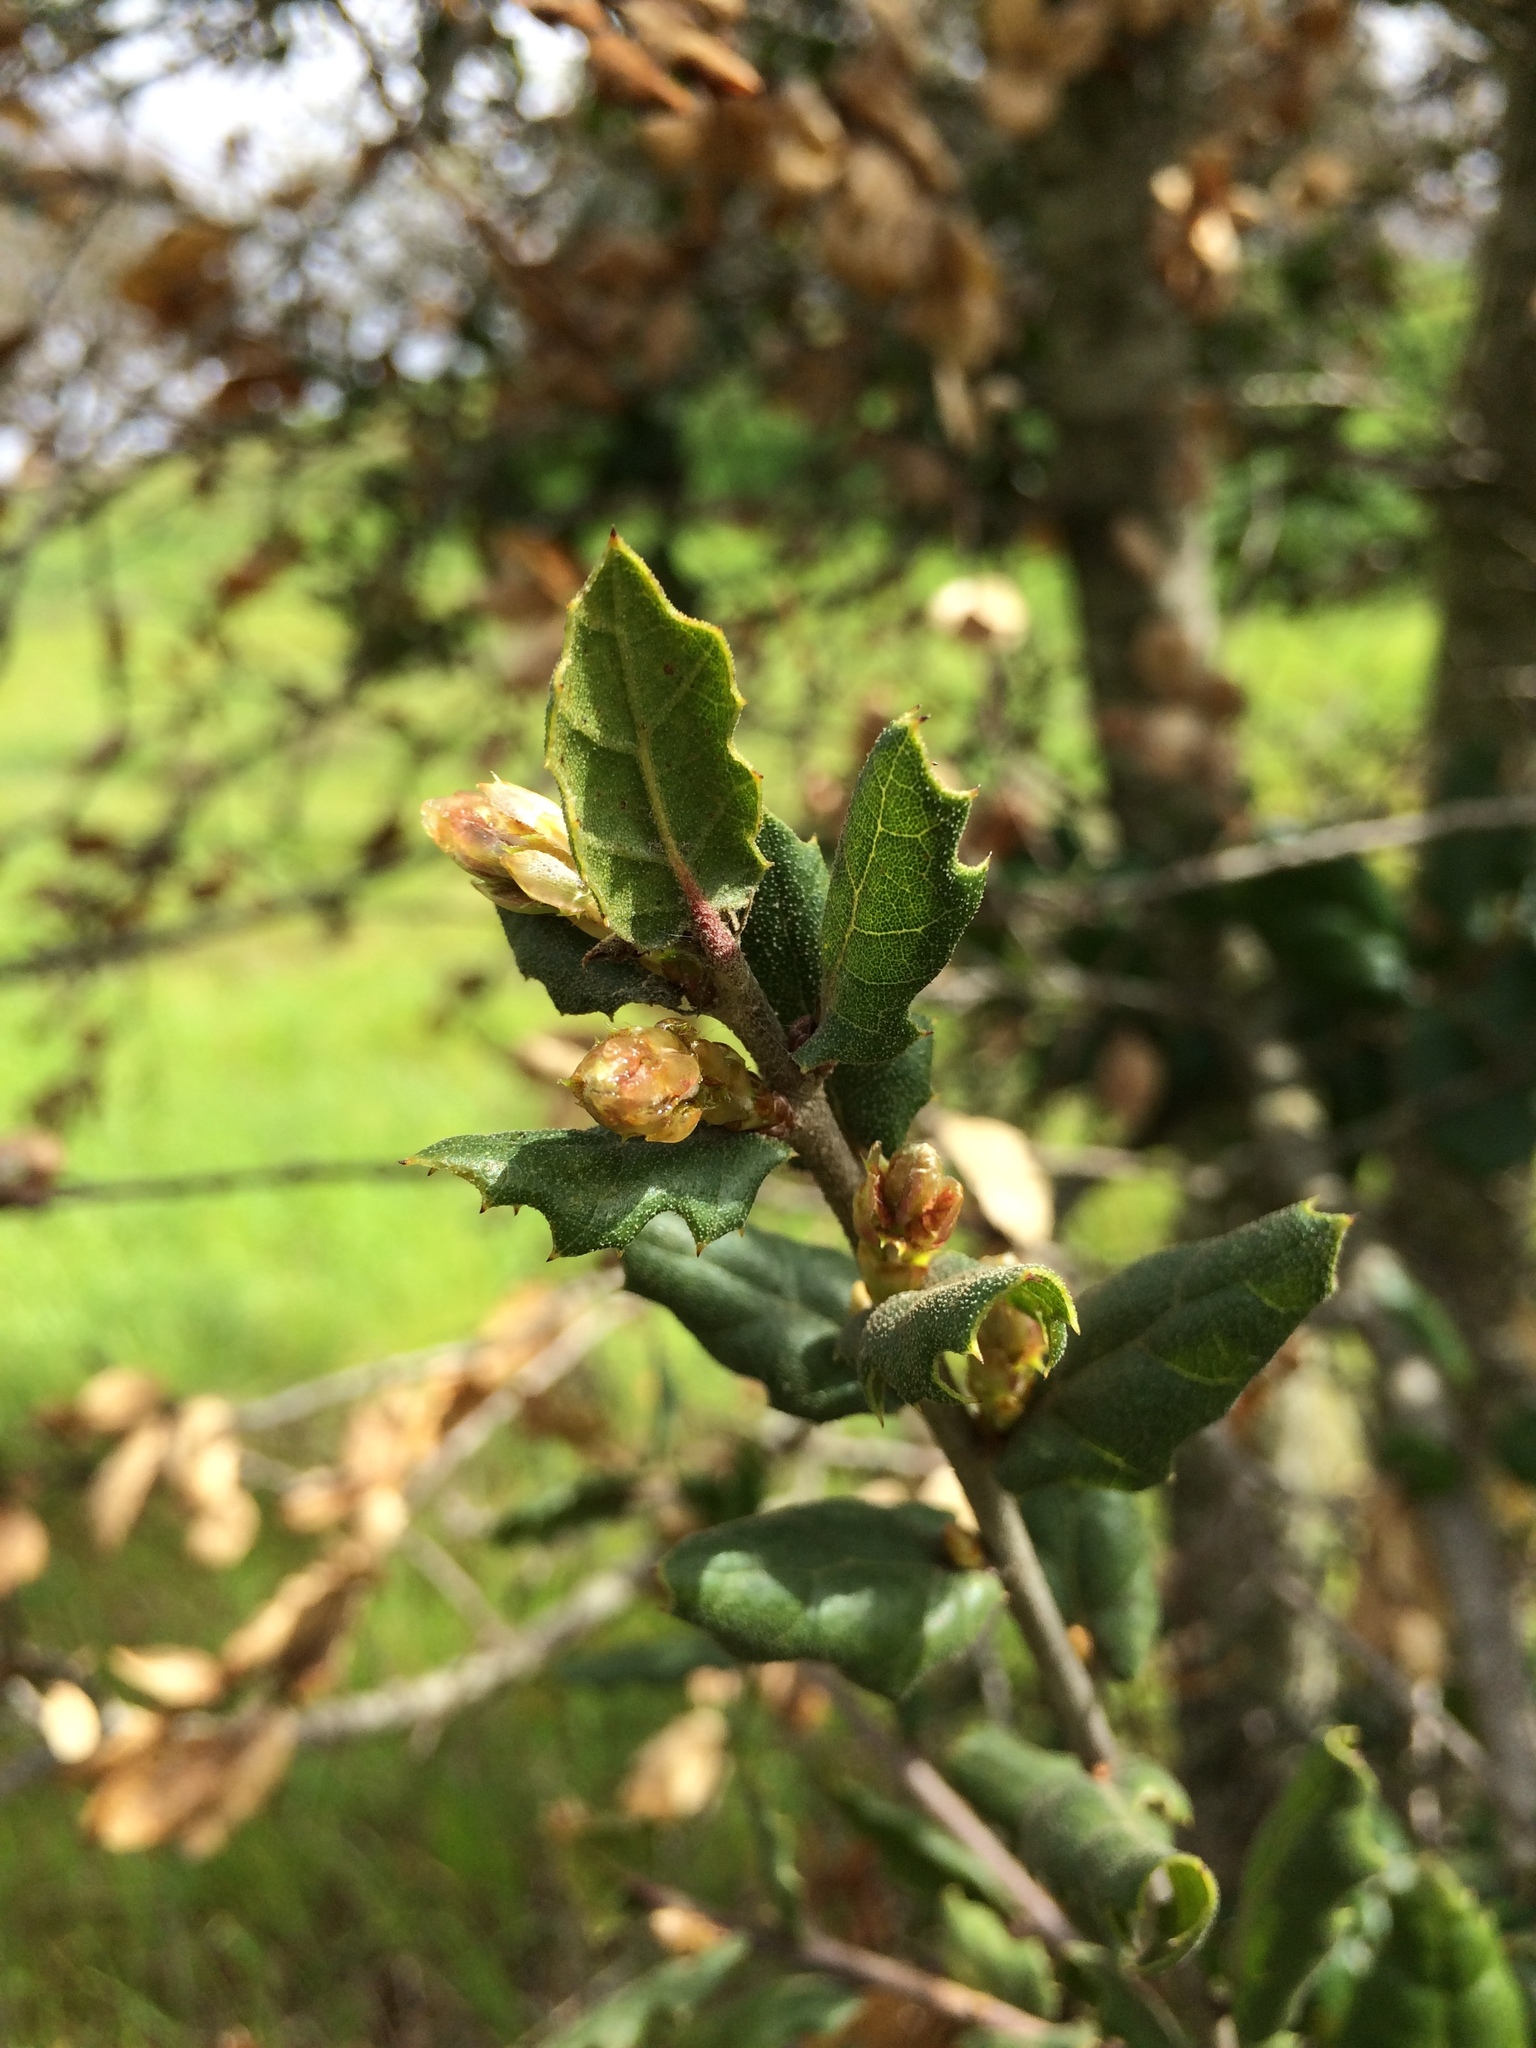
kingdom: Plantae
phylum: Tracheophyta
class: Magnoliopsida
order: Fagales
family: Fagaceae
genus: Quercus
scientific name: Quercus agrifolia
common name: California live oak
